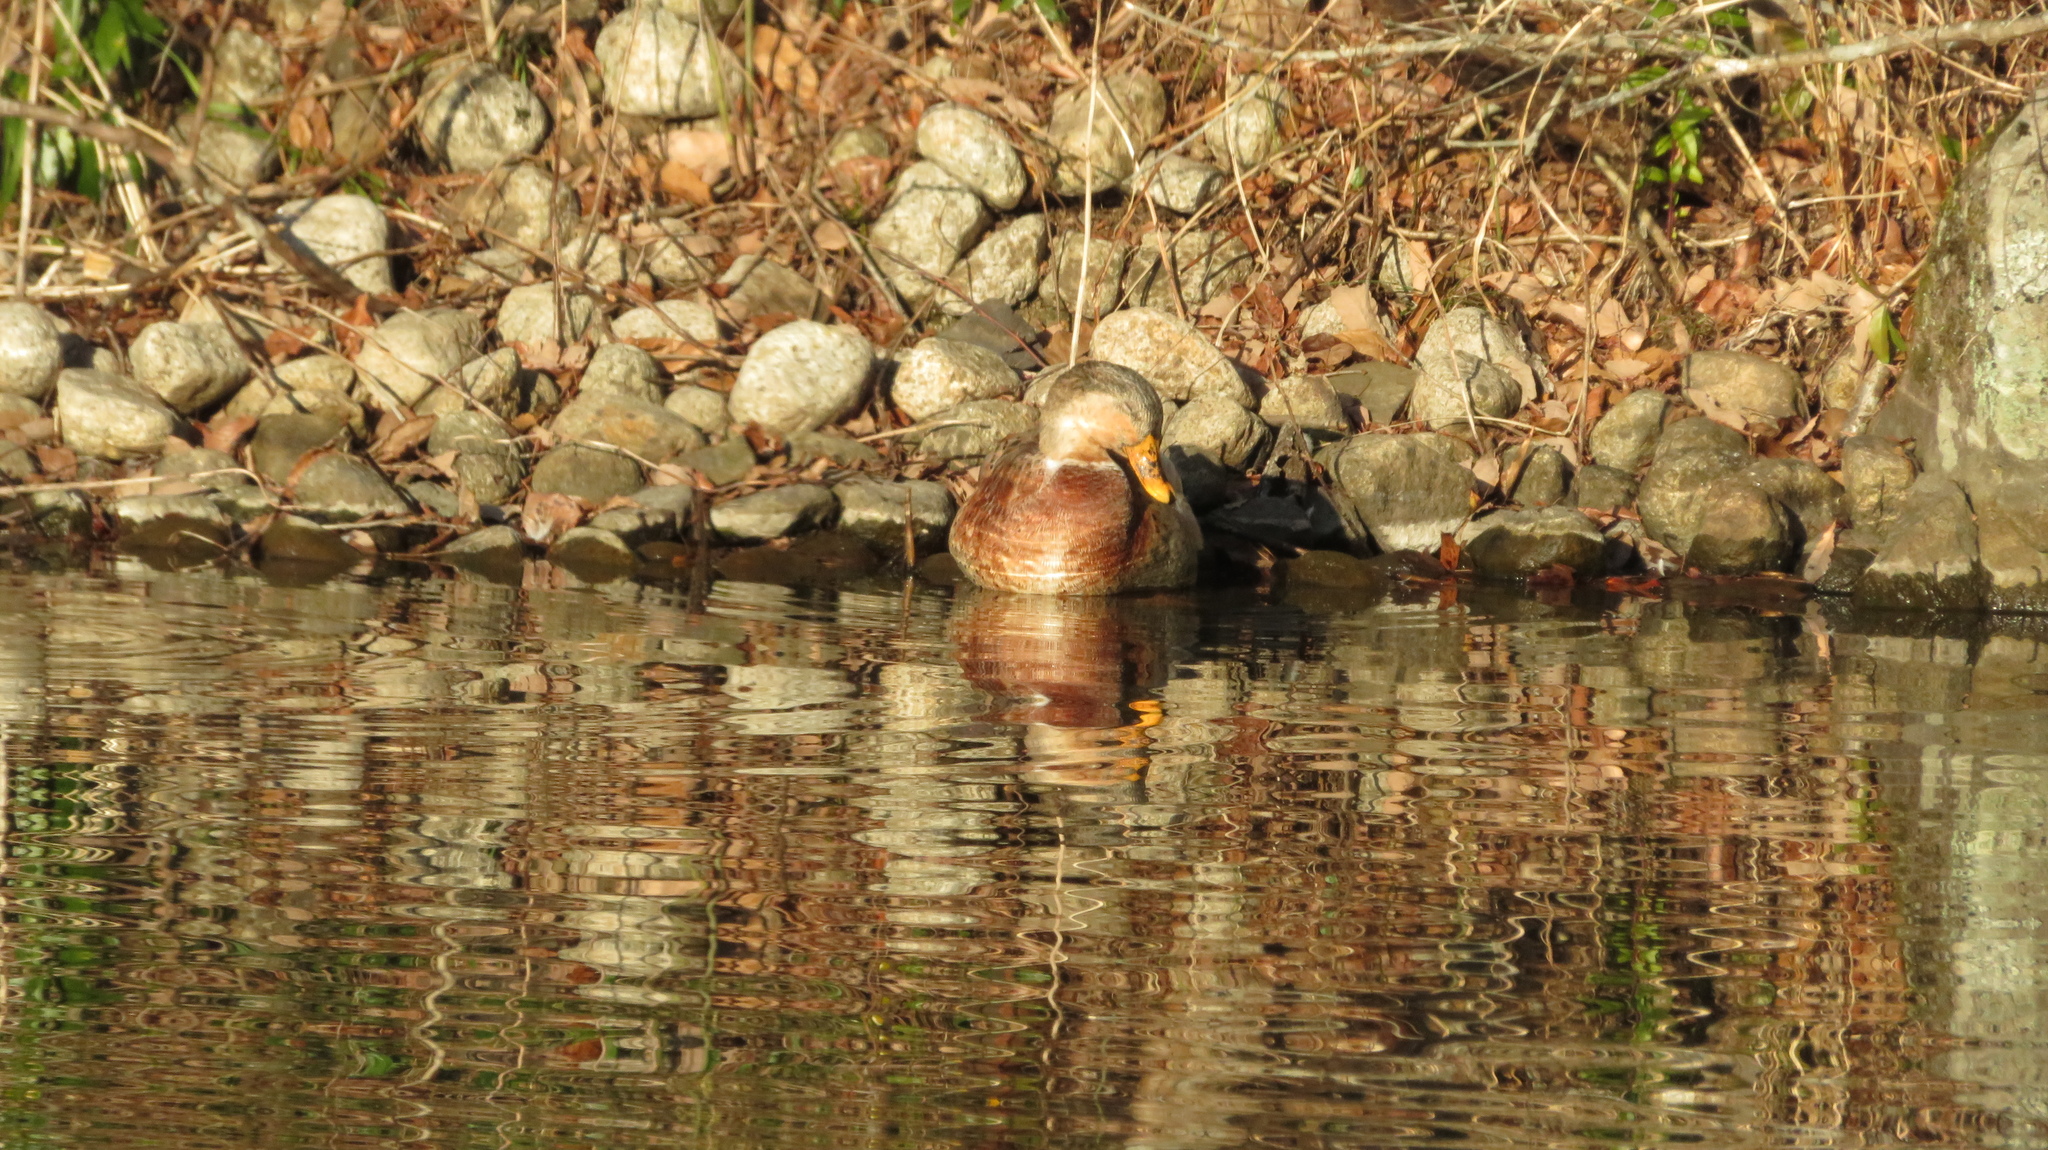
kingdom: Animalia
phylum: Chordata
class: Aves
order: Anseriformes
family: Anatidae
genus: Anas
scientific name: Anas platyrhynchos
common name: Mallard
